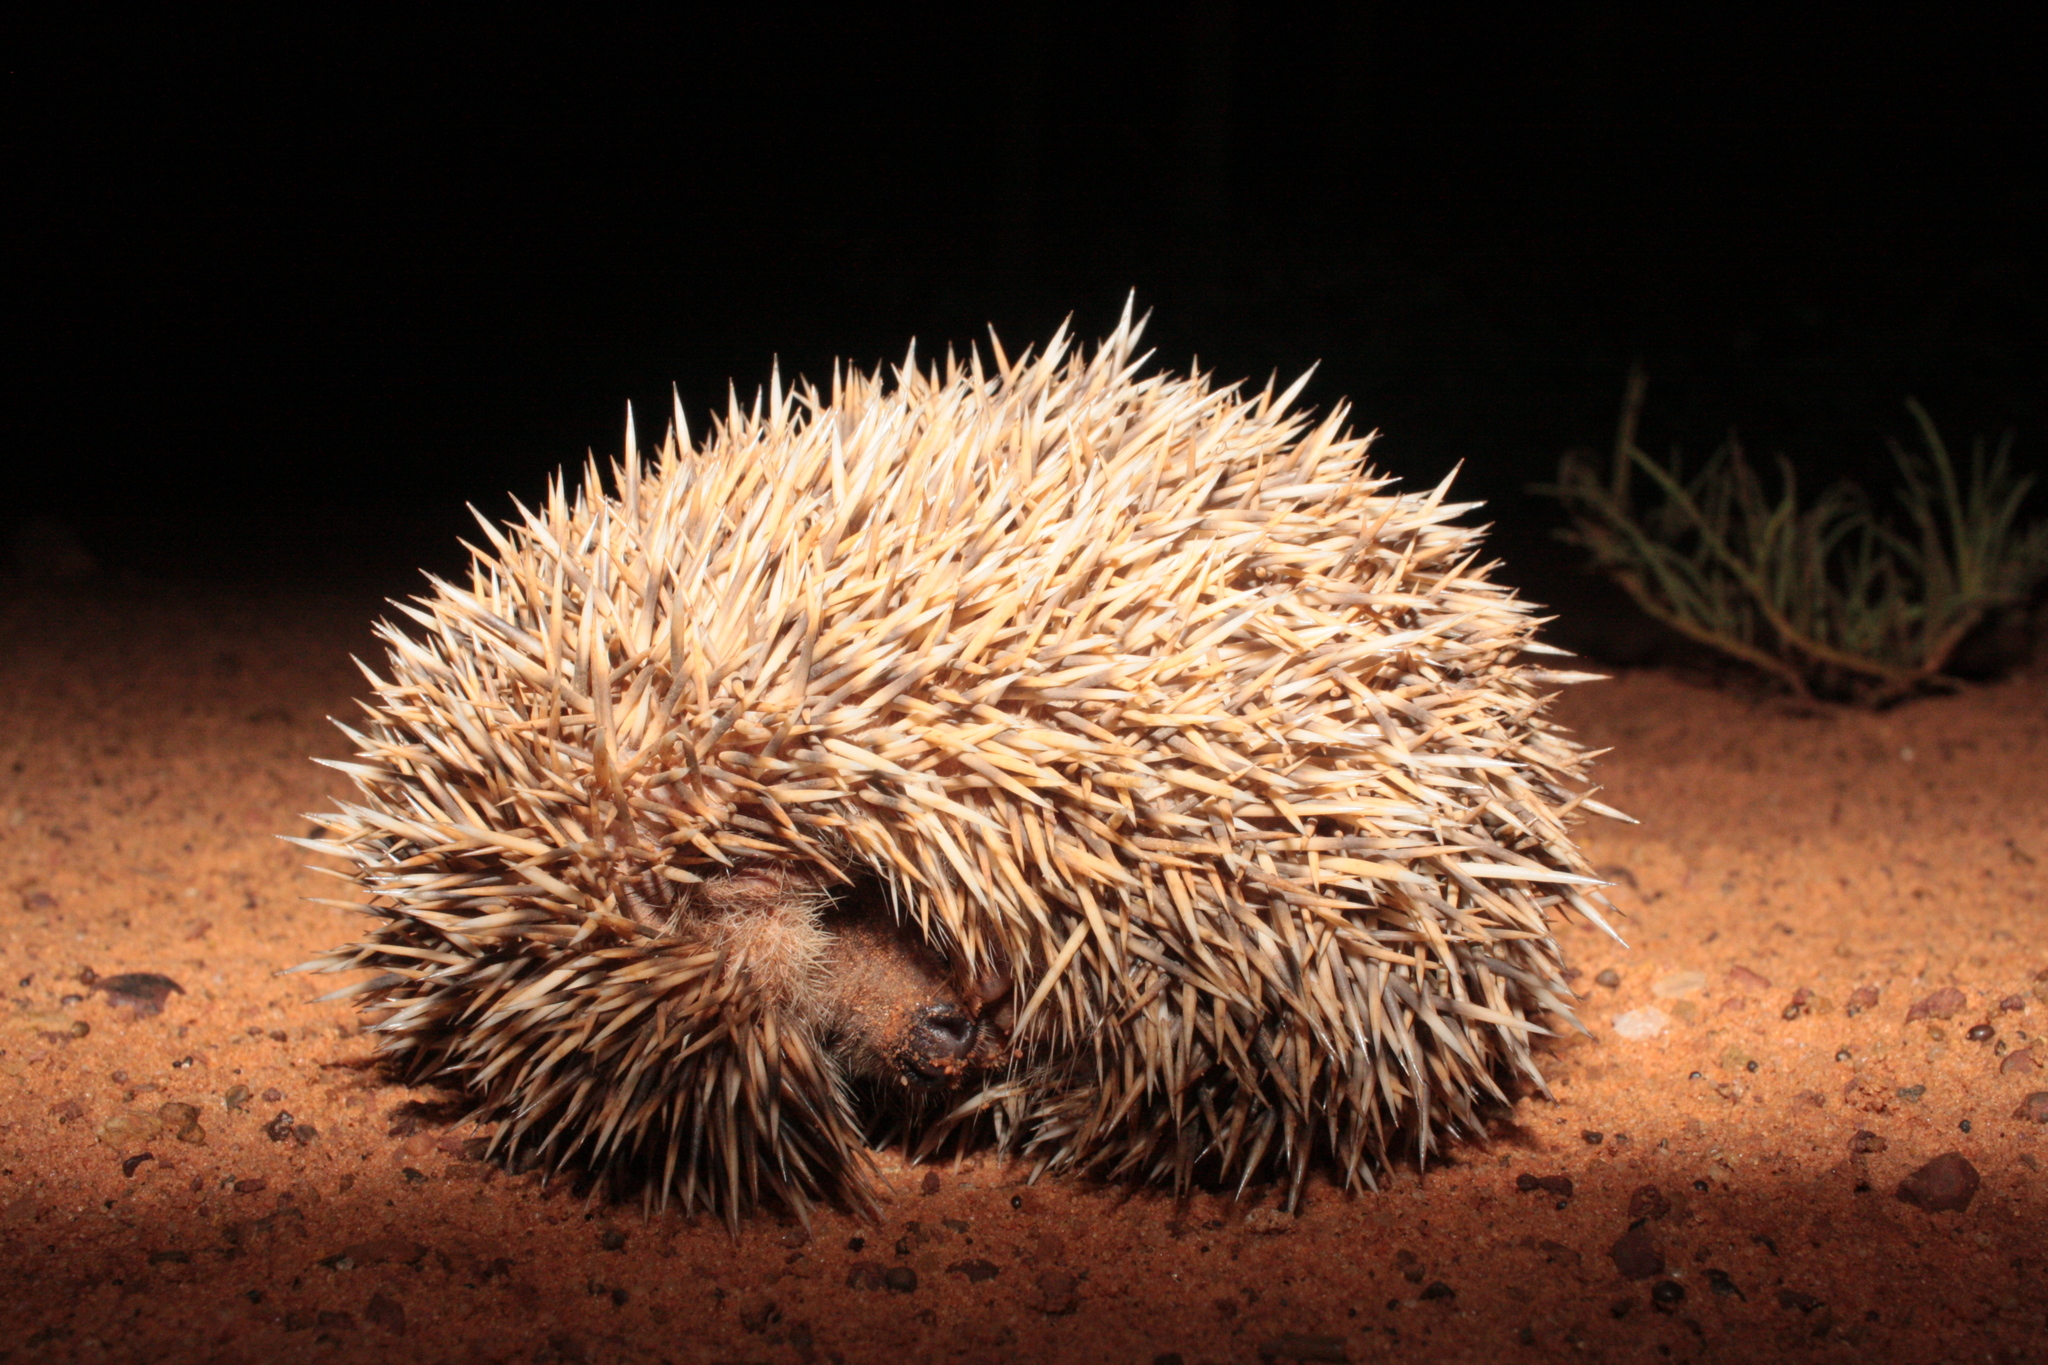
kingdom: Animalia
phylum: Chordata
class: Mammalia
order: Erinaceomorpha
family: Erinaceidae
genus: Atelerix
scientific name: Atelerix albiventris
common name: Four-toed hedgehog
